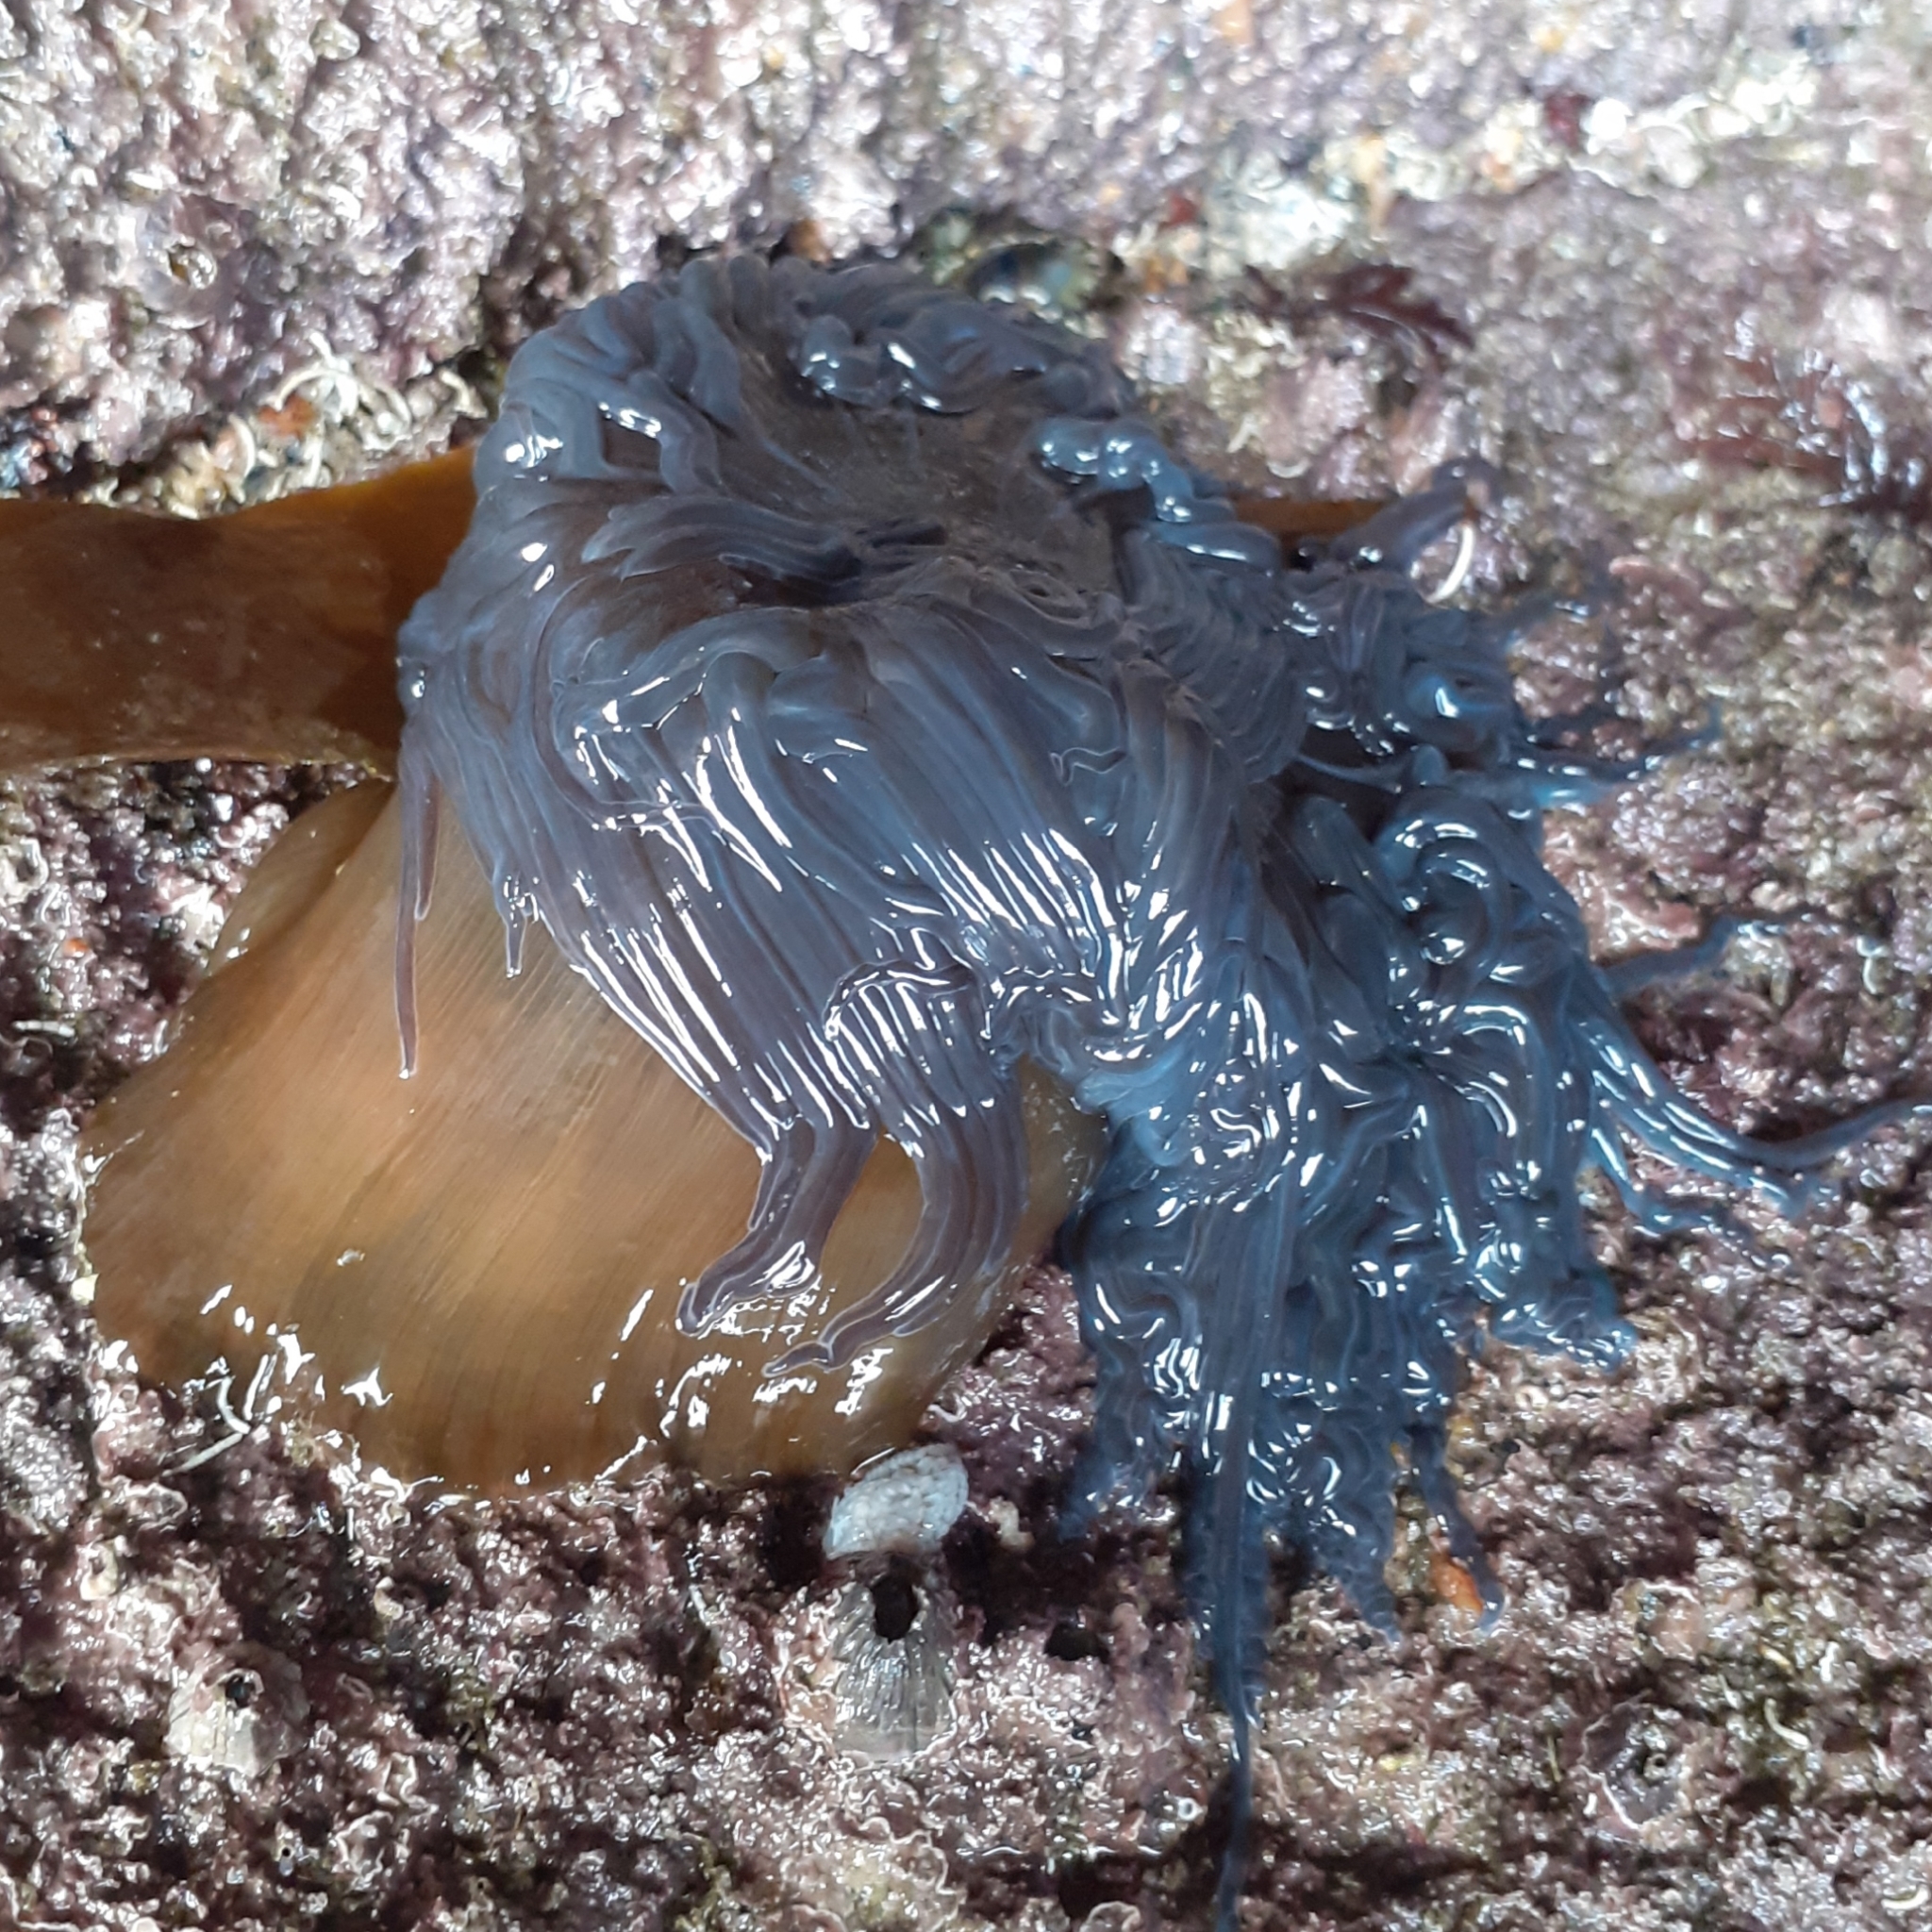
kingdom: Animalia
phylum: Cnidaria
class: Anthozoa
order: Actiniaria
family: Actiniidae
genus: Anemonia
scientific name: Anemonia viridis
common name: Snakelocks anemone
